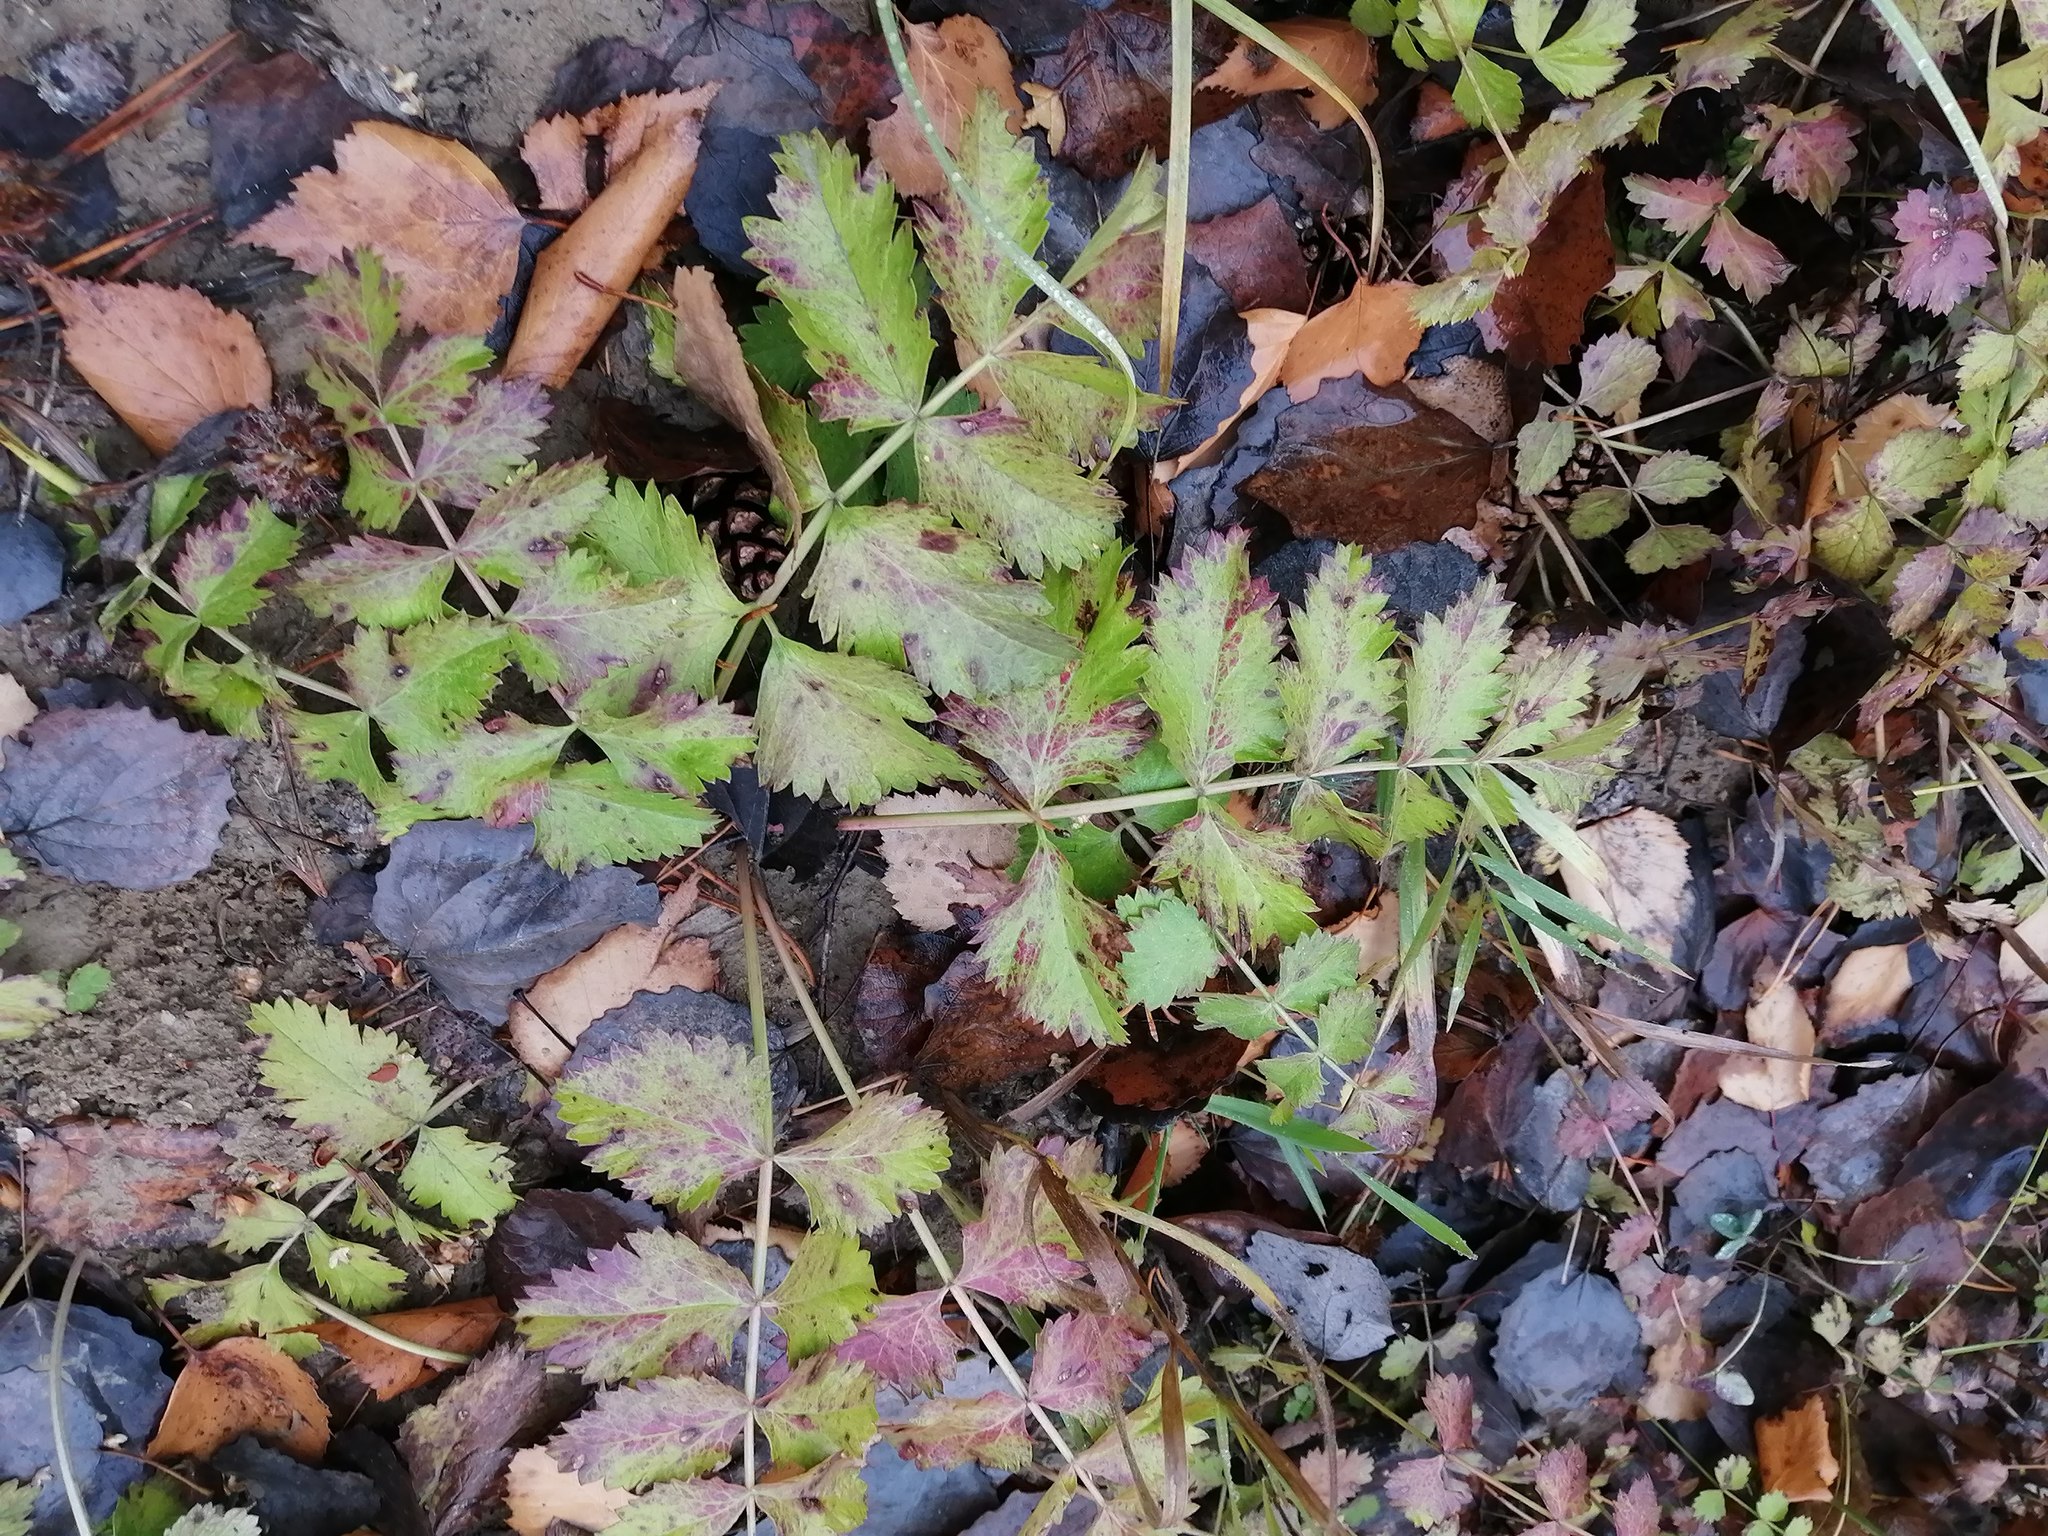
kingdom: Plantae
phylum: Tracheophyta
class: Magnoliopsida
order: Apiales
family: Apiaceae
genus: Pimpinella
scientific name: Pimpinella saxifraga
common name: Burnet-saxifrage
